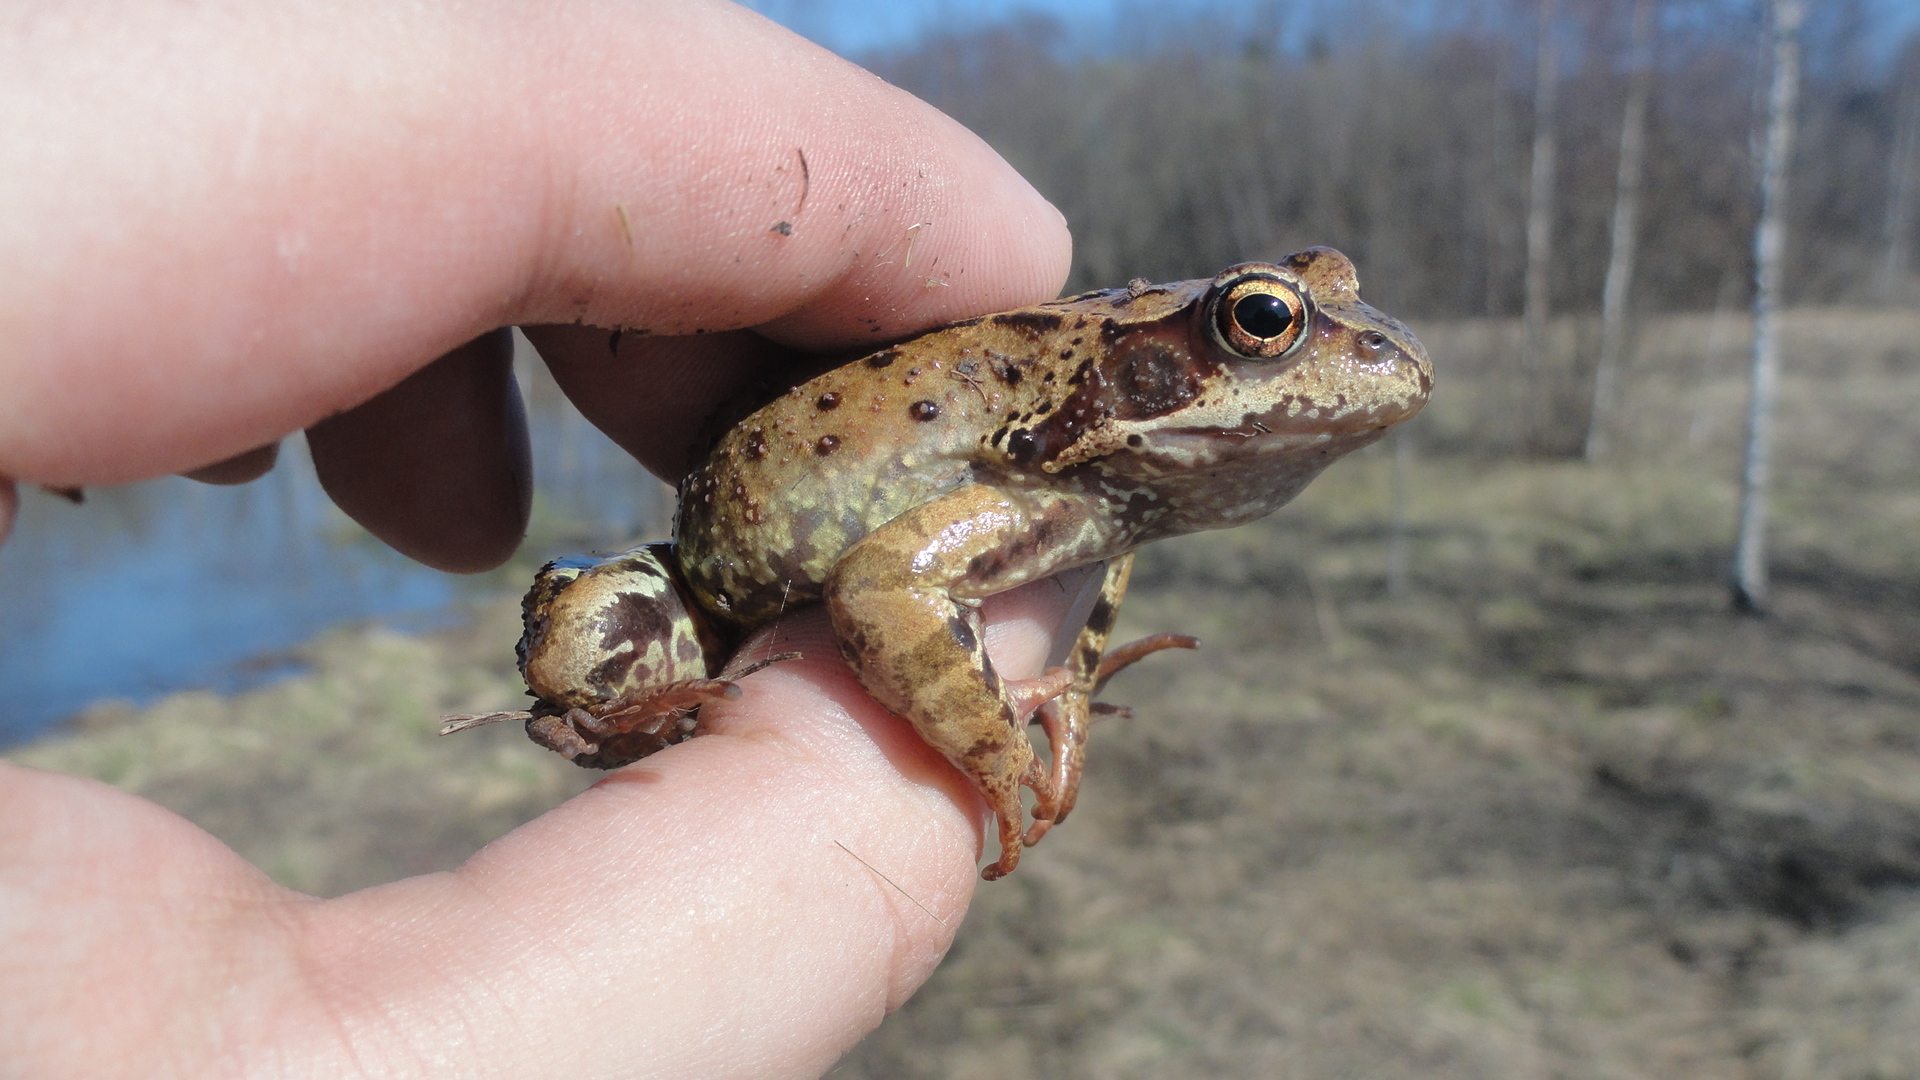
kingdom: Animalia
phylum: Chordata
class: Amphibia
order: Anura
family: Ranidae
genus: Rana
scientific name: Rana temporaria
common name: Common frog
